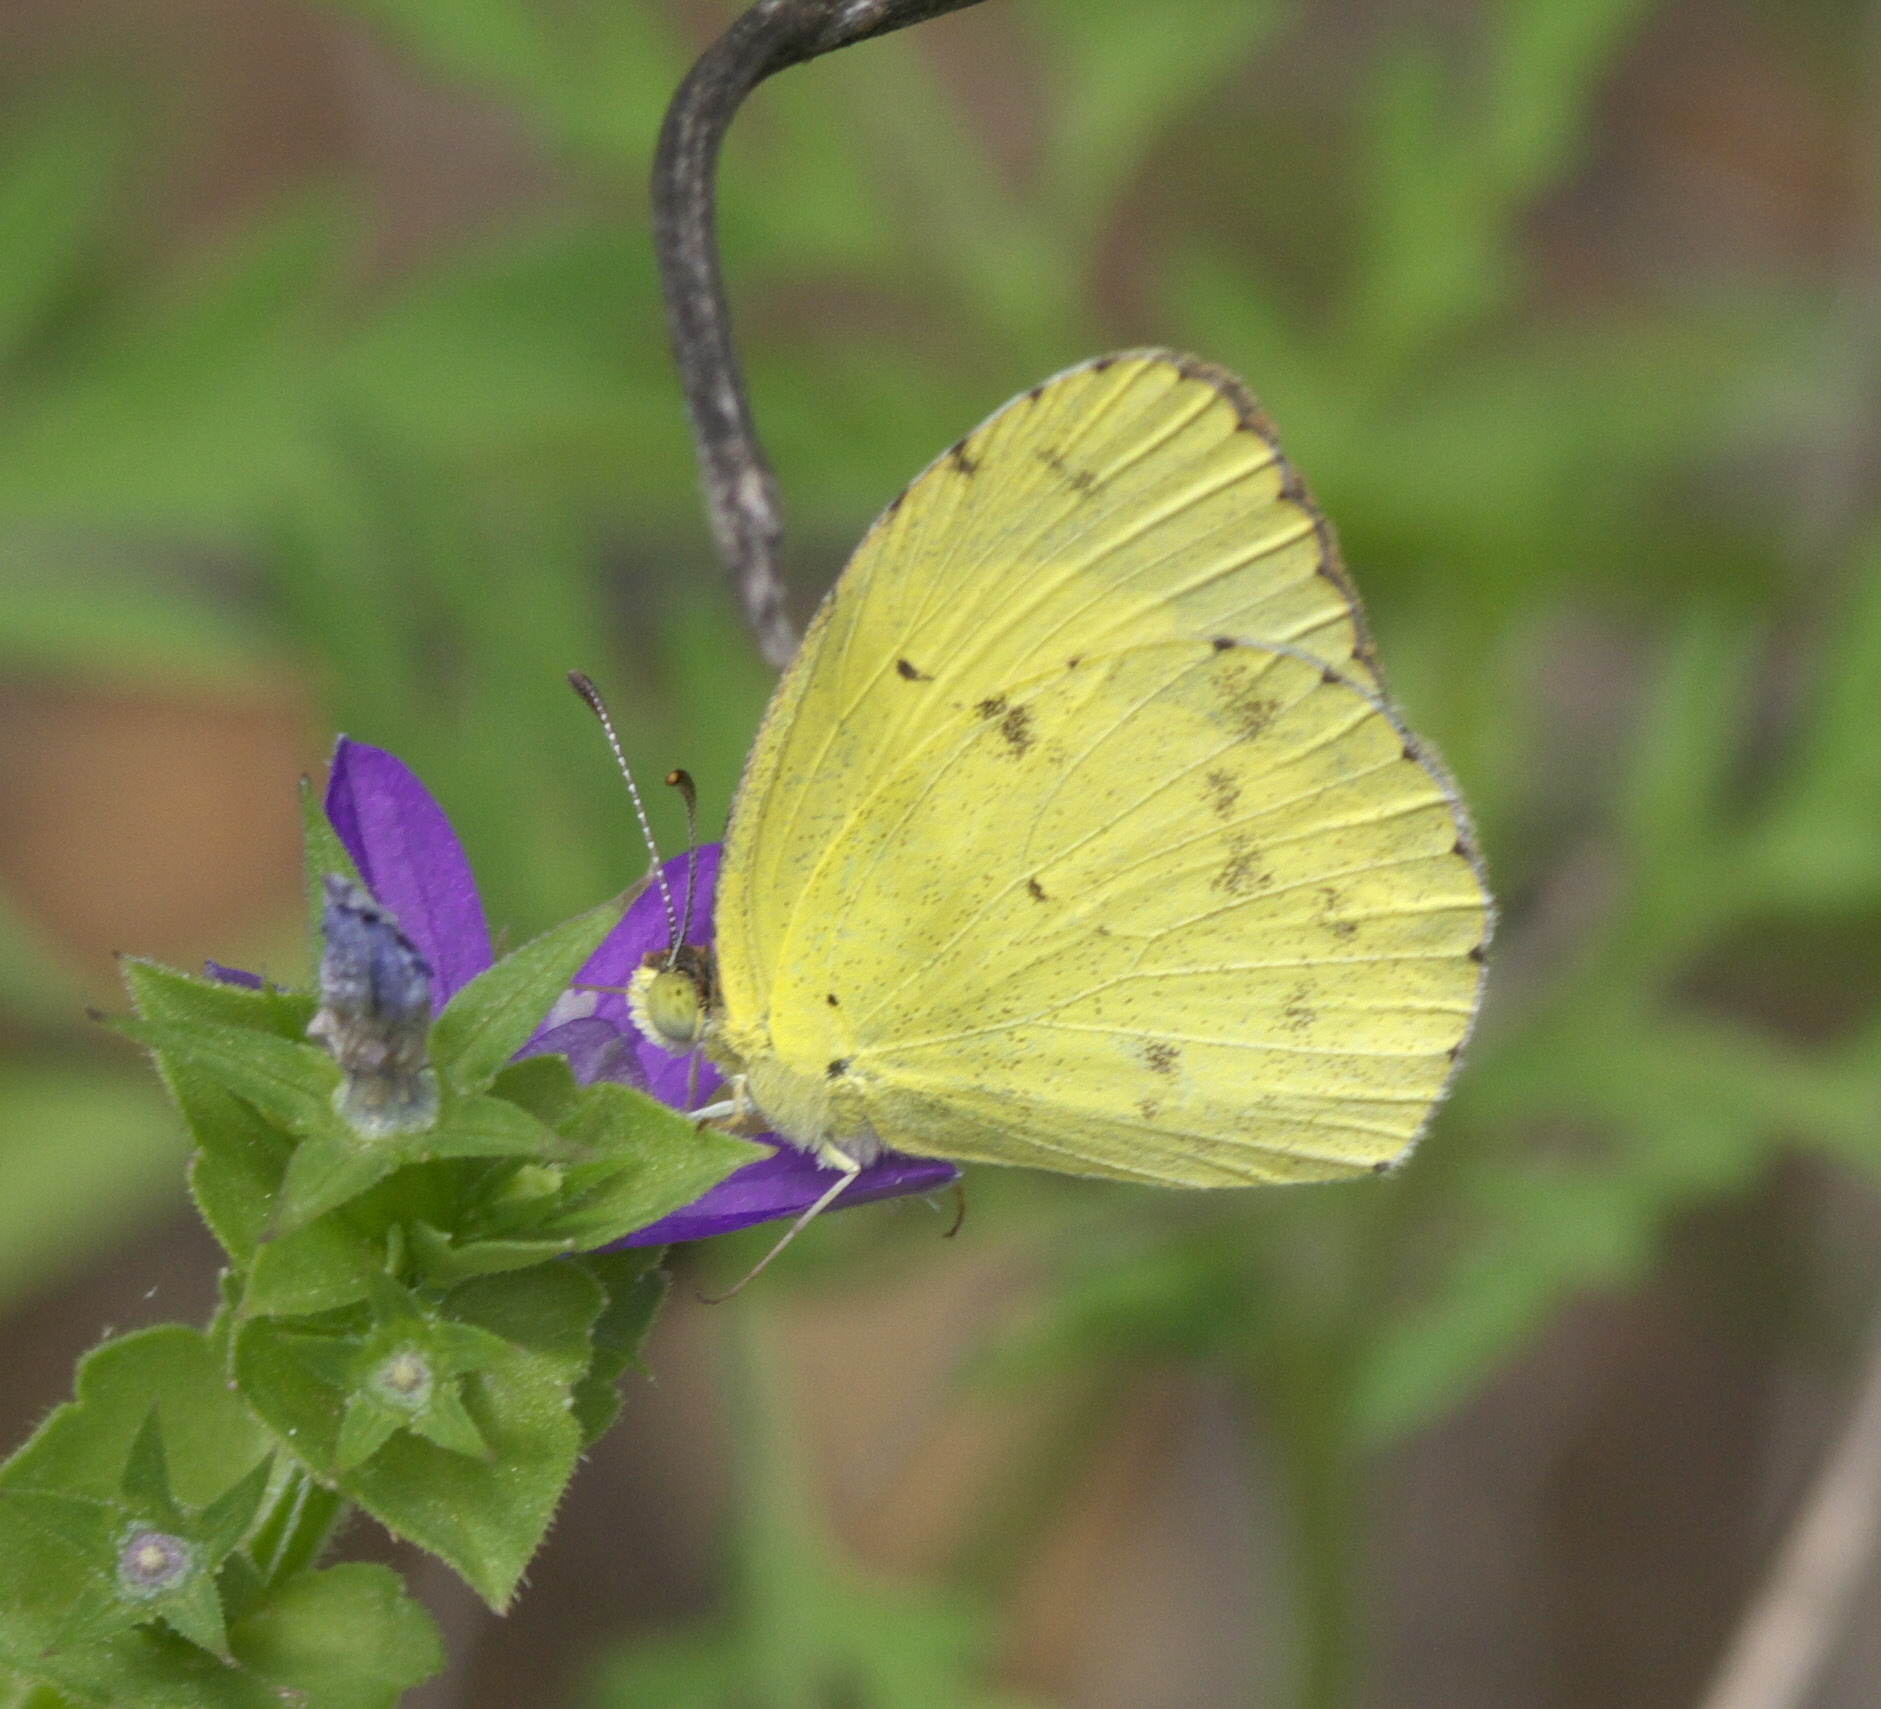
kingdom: Animalia
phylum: Arthropoda
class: Insecta
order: Lepidoptera
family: Pieridae
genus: Pyrisitia
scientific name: Pyrisitia lisa
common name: Little yellow
